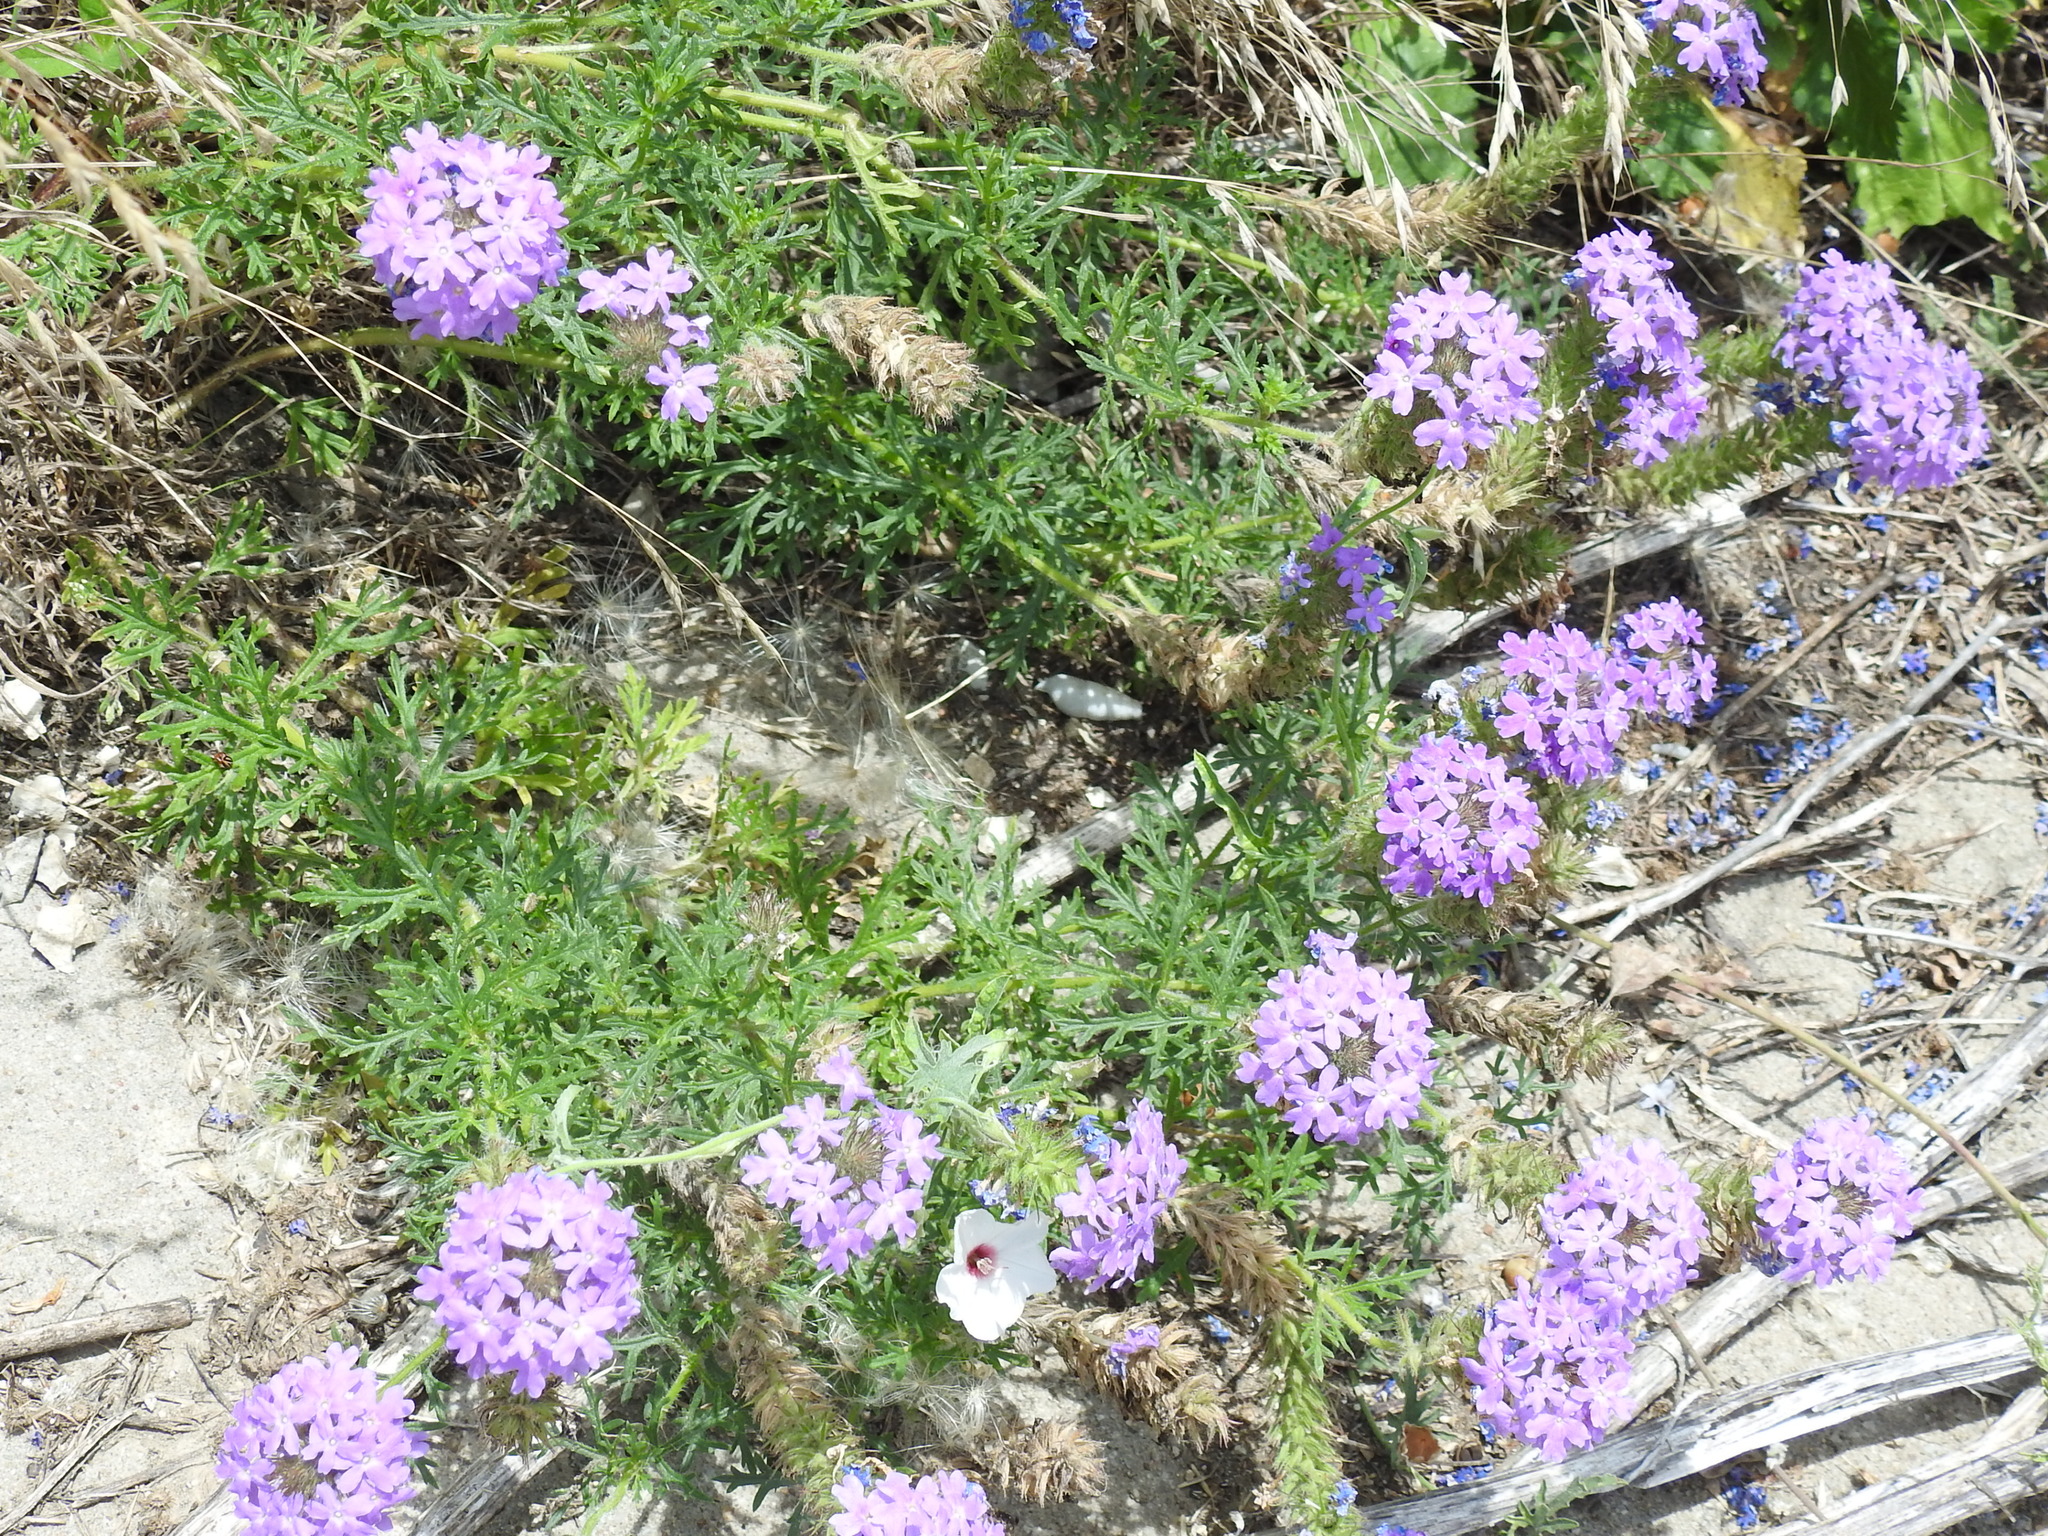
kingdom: Plantae
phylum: Tracheophyta
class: Magnoliopsida
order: Lamiales
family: Verbenaceae
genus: Verbena
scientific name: Verbena bipinnatifida
